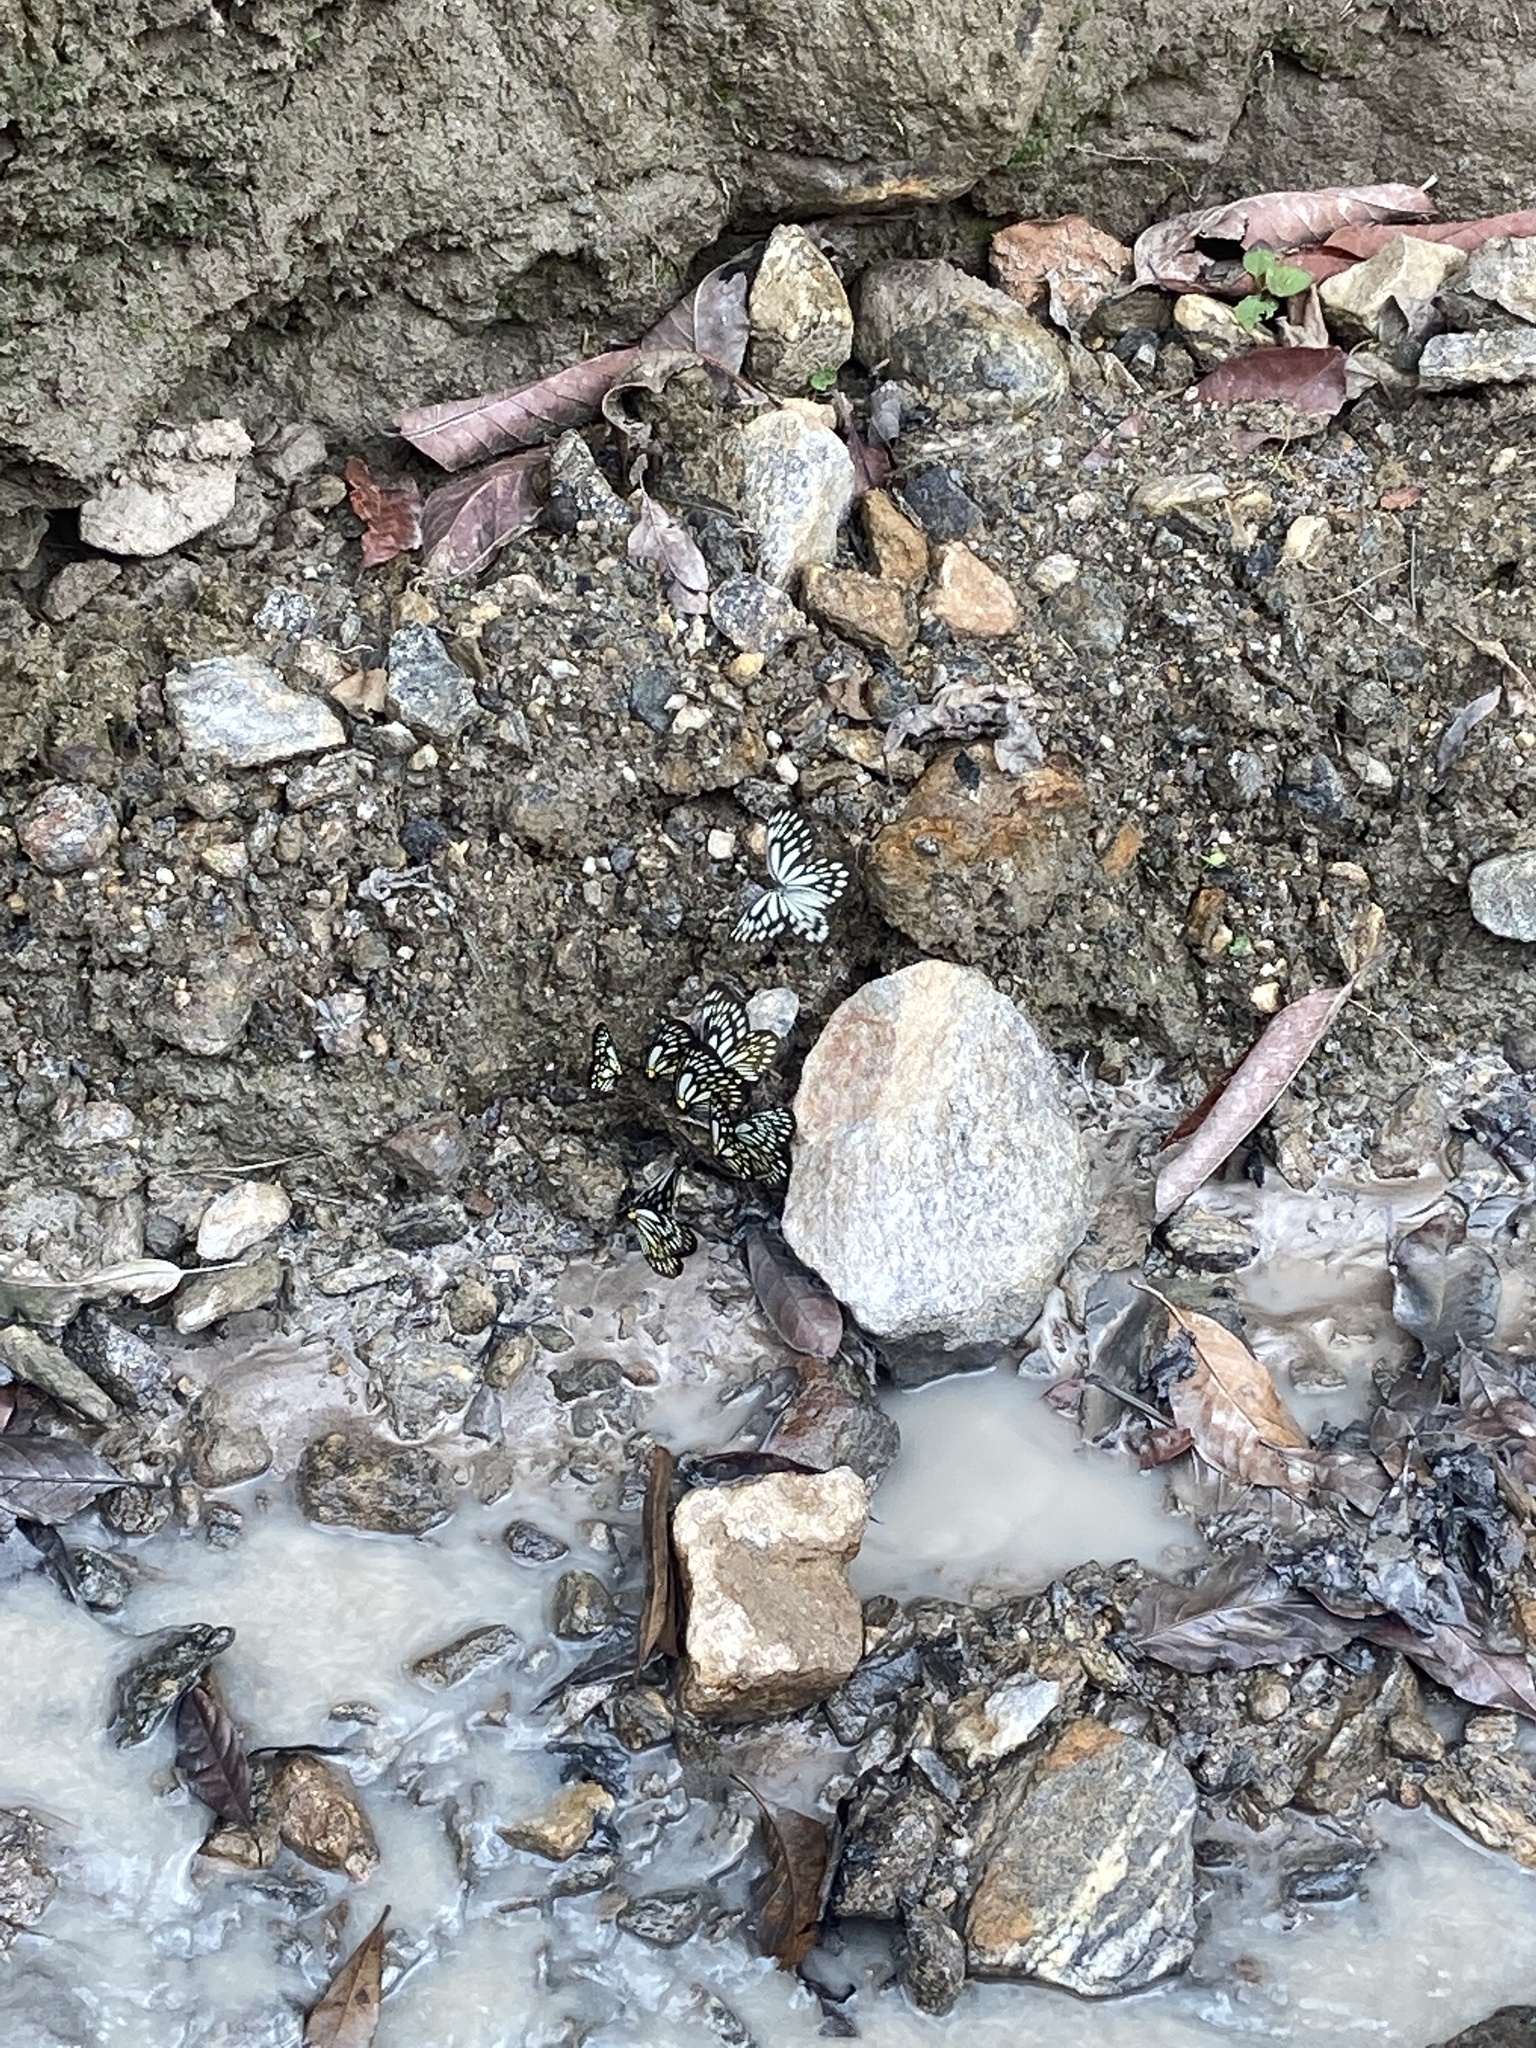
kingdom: Animalia
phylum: Arthropoda
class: Insecta
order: Lepidoptera
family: Pieridae
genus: Aporia
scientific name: Aporia agathon
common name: Great blackvein
